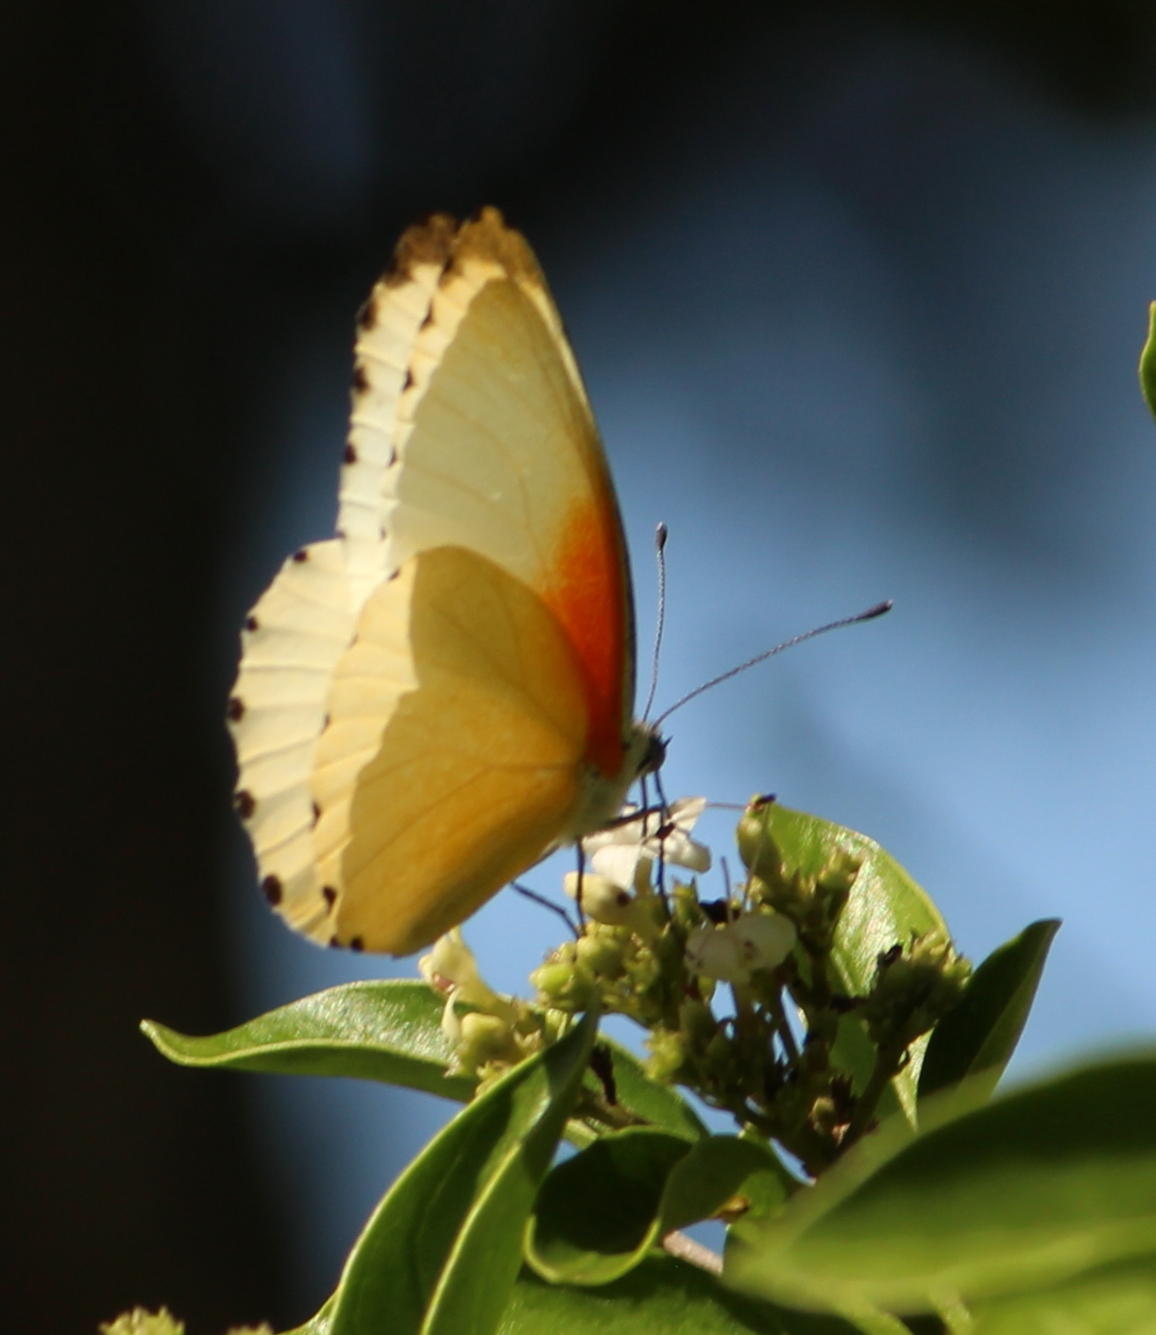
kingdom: Animalia
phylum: Arthropoda
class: Insecta
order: Lepidoptera
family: Pieridae
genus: Mylothris
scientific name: Mylothris agathina
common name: Eastern dotted border
